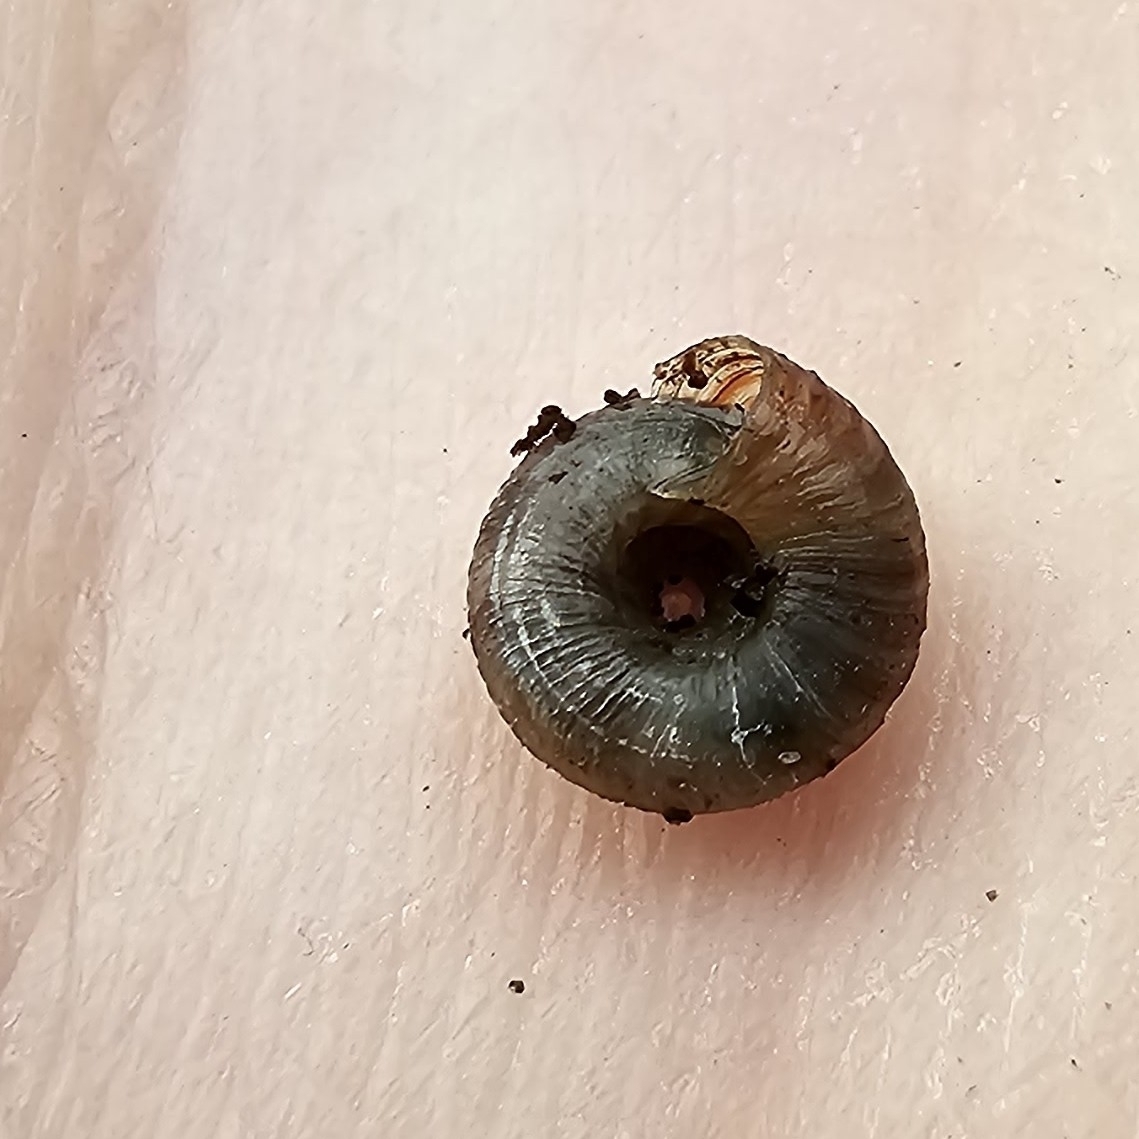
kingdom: Animalia
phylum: Mollusca
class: Gastropoda
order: Stylommatophora
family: Discidae
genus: Discus
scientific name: Discus rotundatus
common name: Rounded snail
